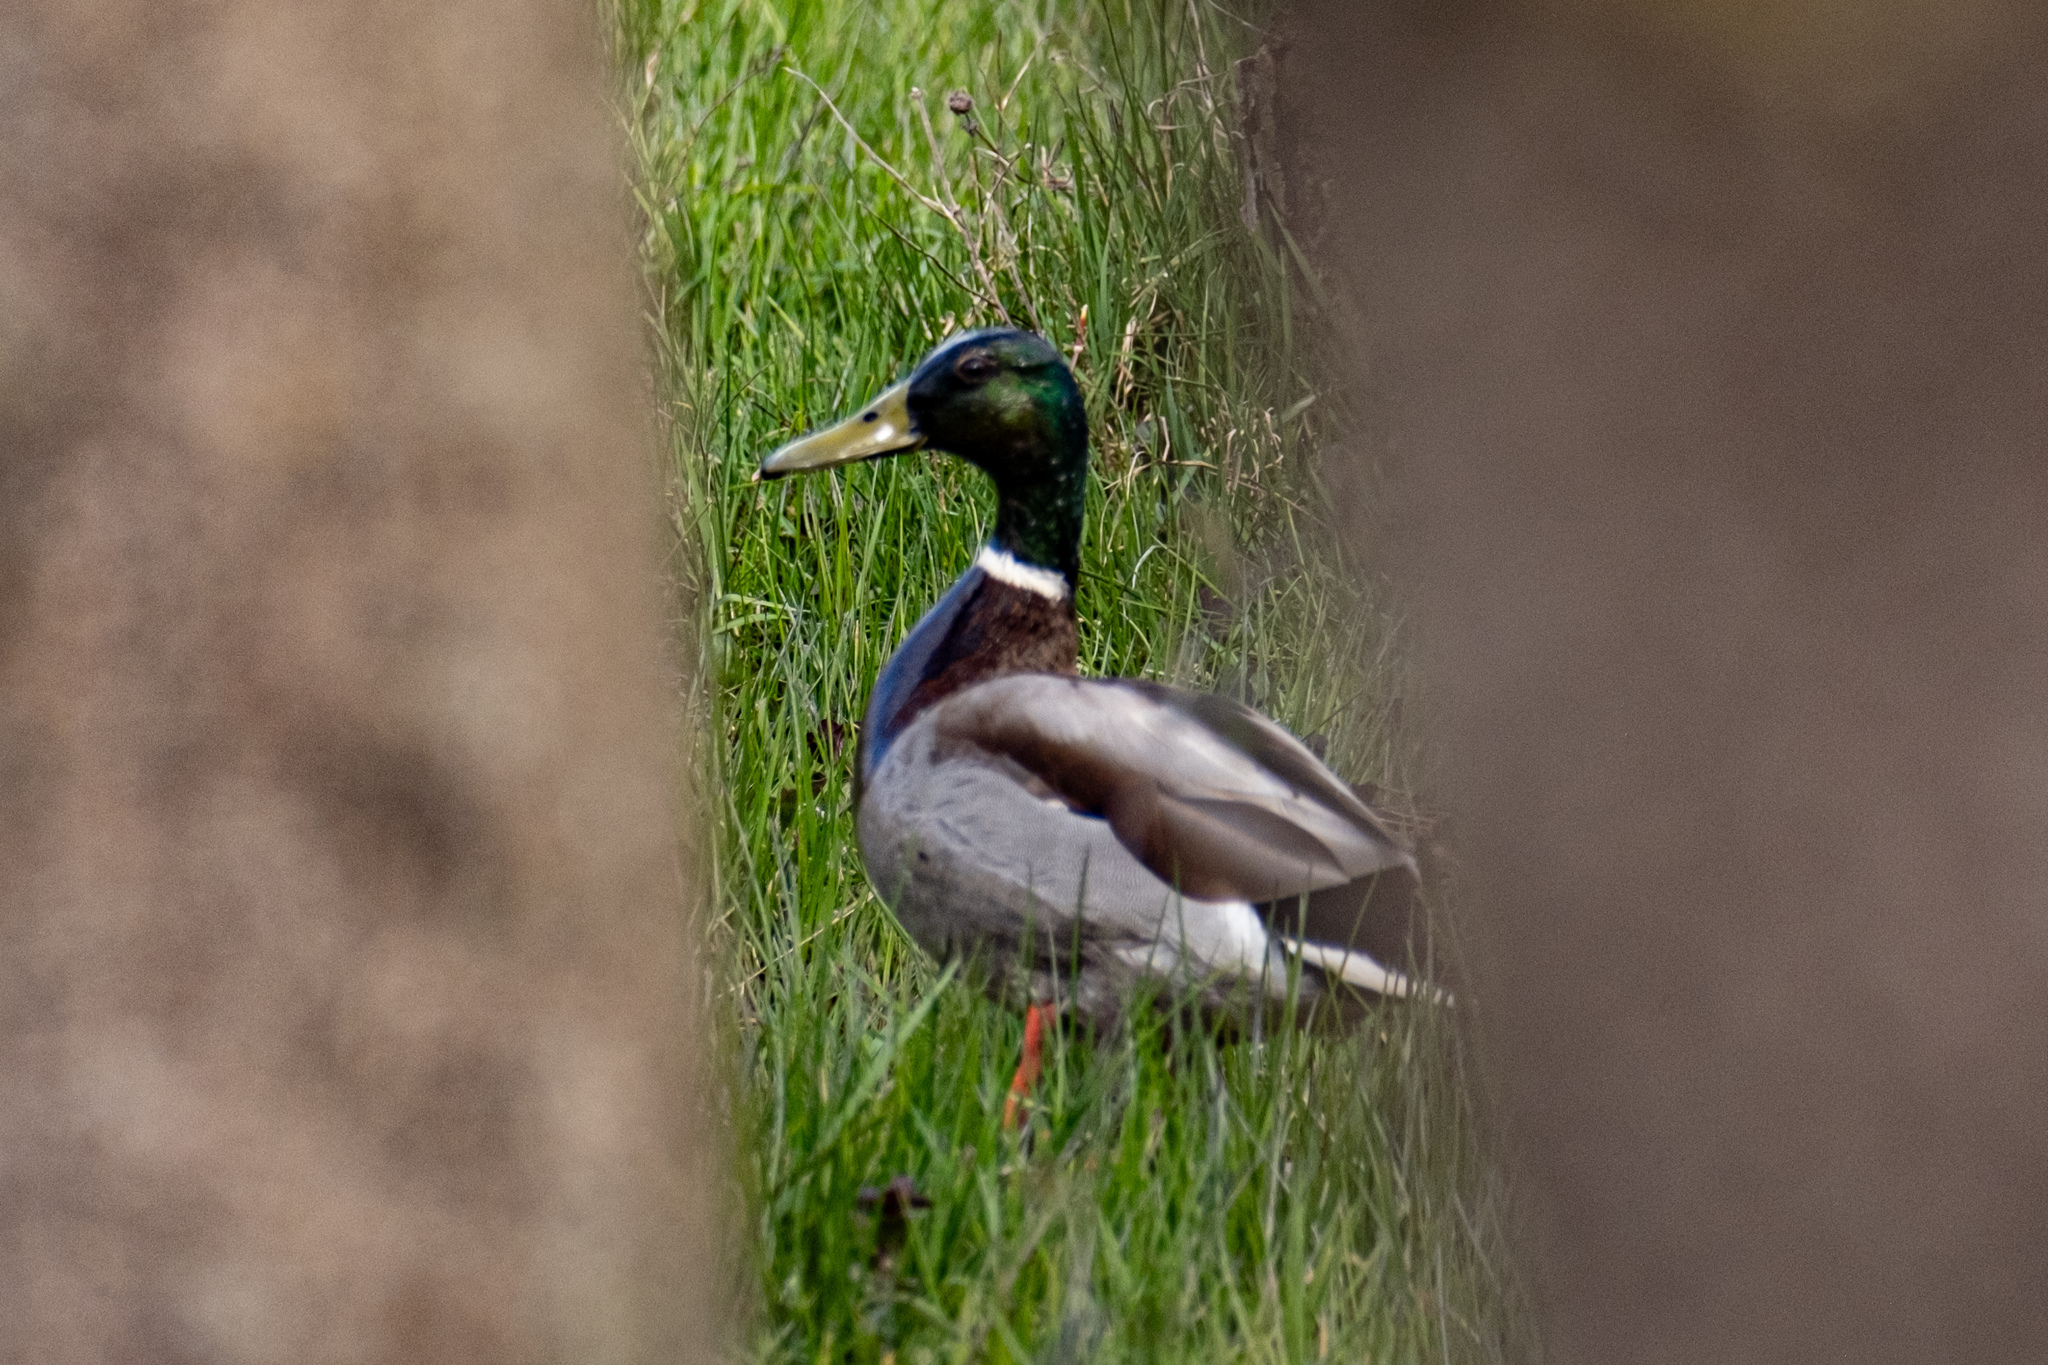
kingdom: Animalia
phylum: Chordata
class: Aves
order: Anseriformes
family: Anatidae
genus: Anas
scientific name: Anas platyrhynchos
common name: Mallard
